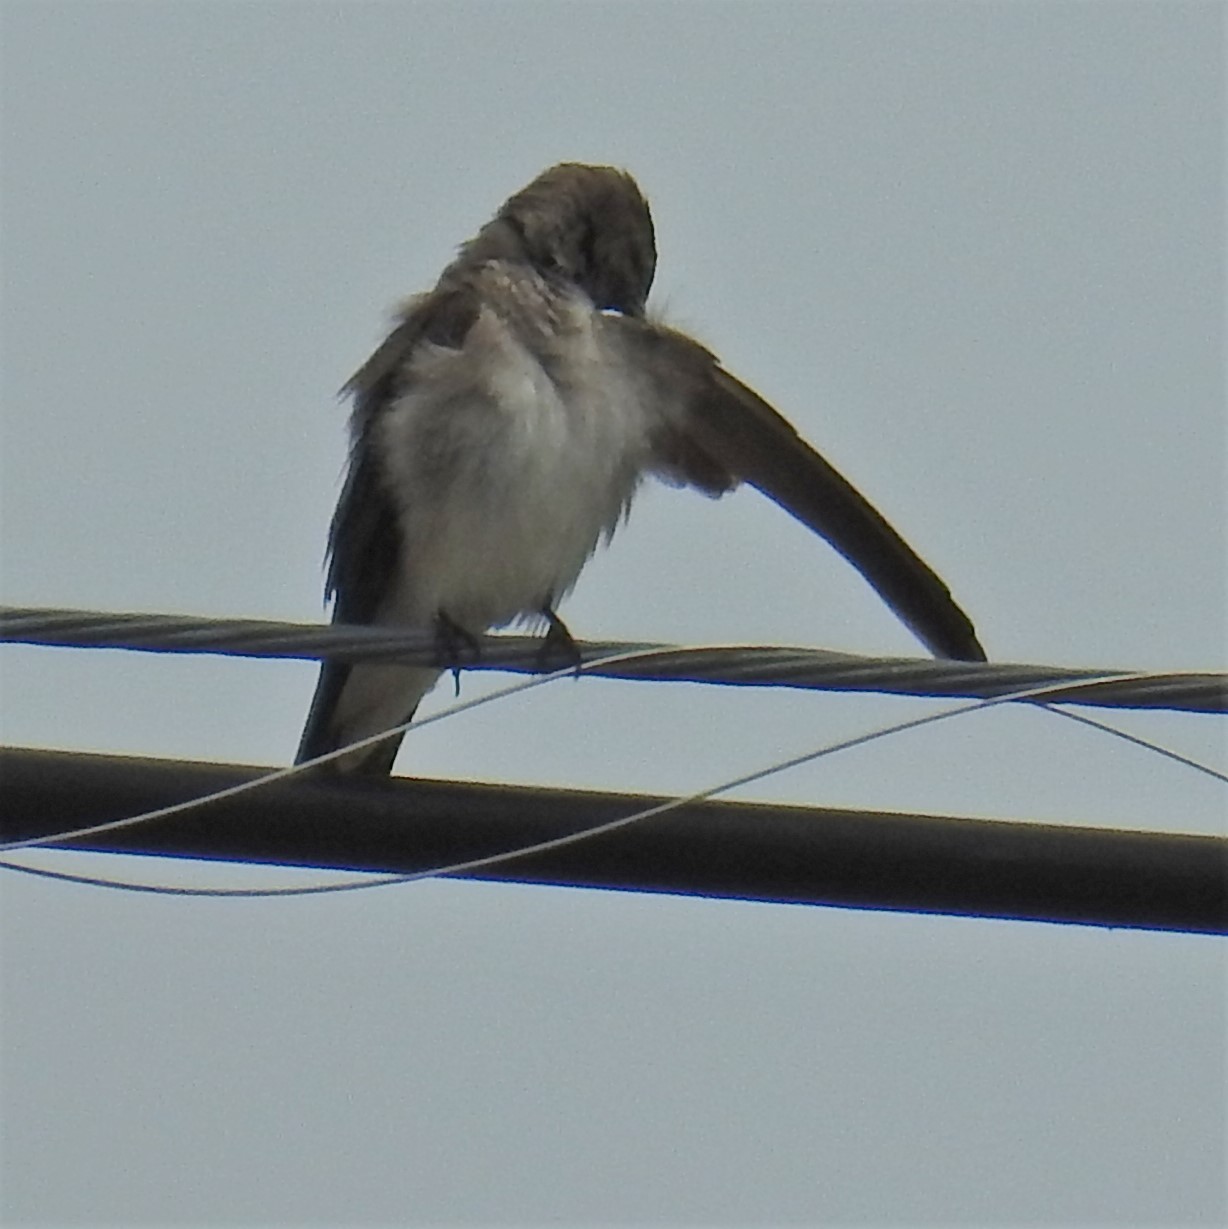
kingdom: Animalia
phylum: Chordata
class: Aves
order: Passeriformes
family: Hirundinidae
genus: Stelgidopteryx
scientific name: Stelgidopteryx serripennis
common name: Northern rough-winged swallow
